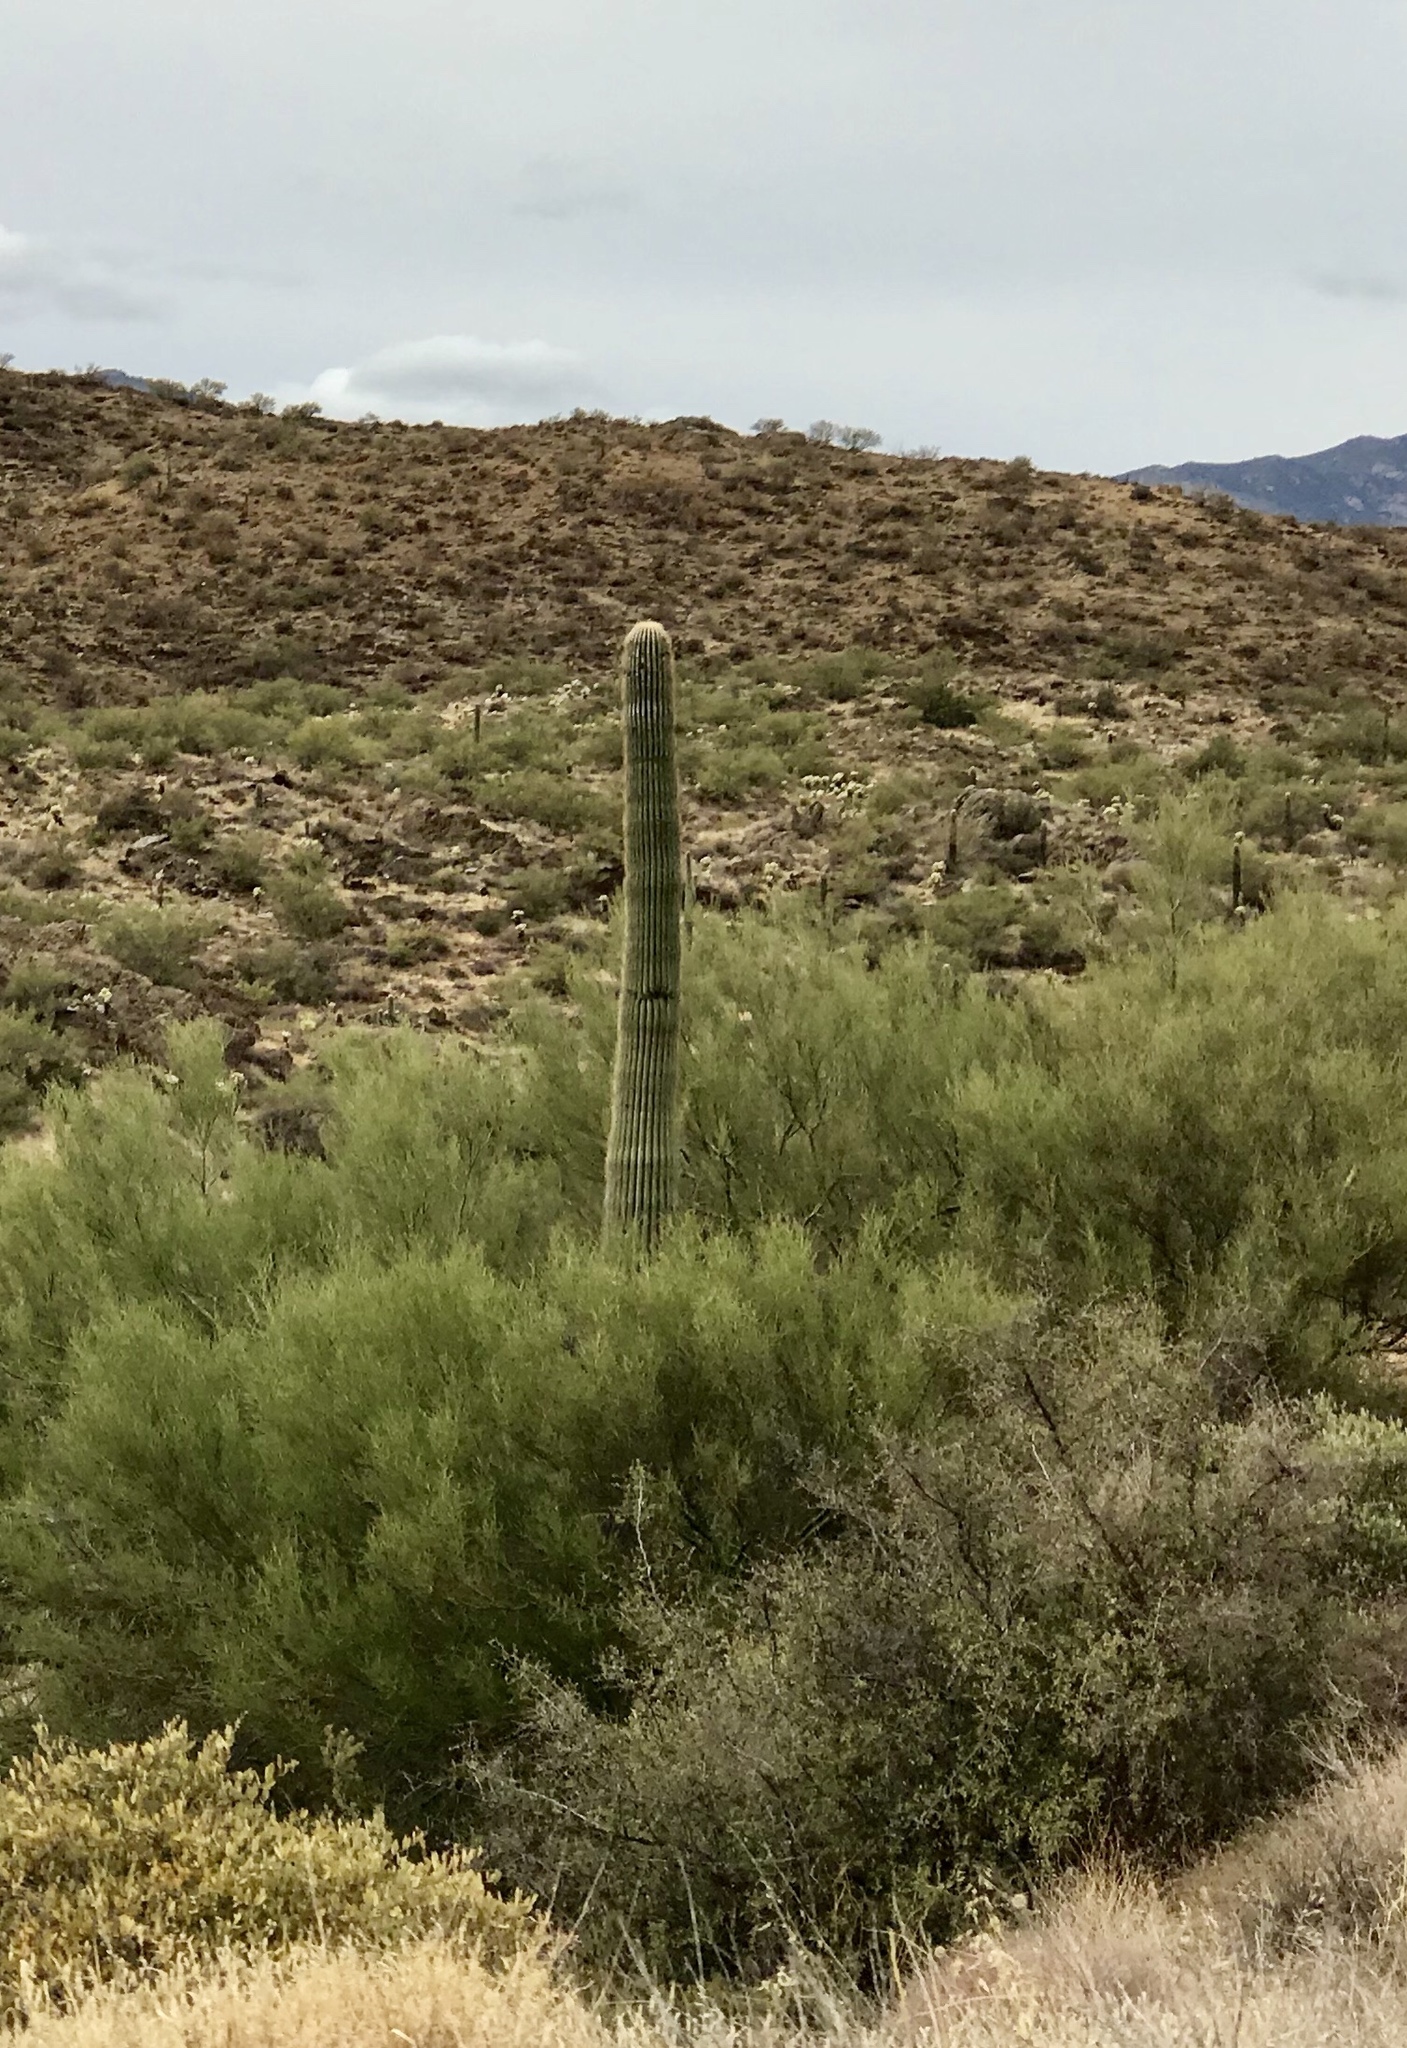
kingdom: Plantae
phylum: Tracheophyta
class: Magnoliopsida
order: Caryophyllales
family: Cactaceae
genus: Carnegiea
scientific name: Carnegiea gigantea
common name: Saguaro
